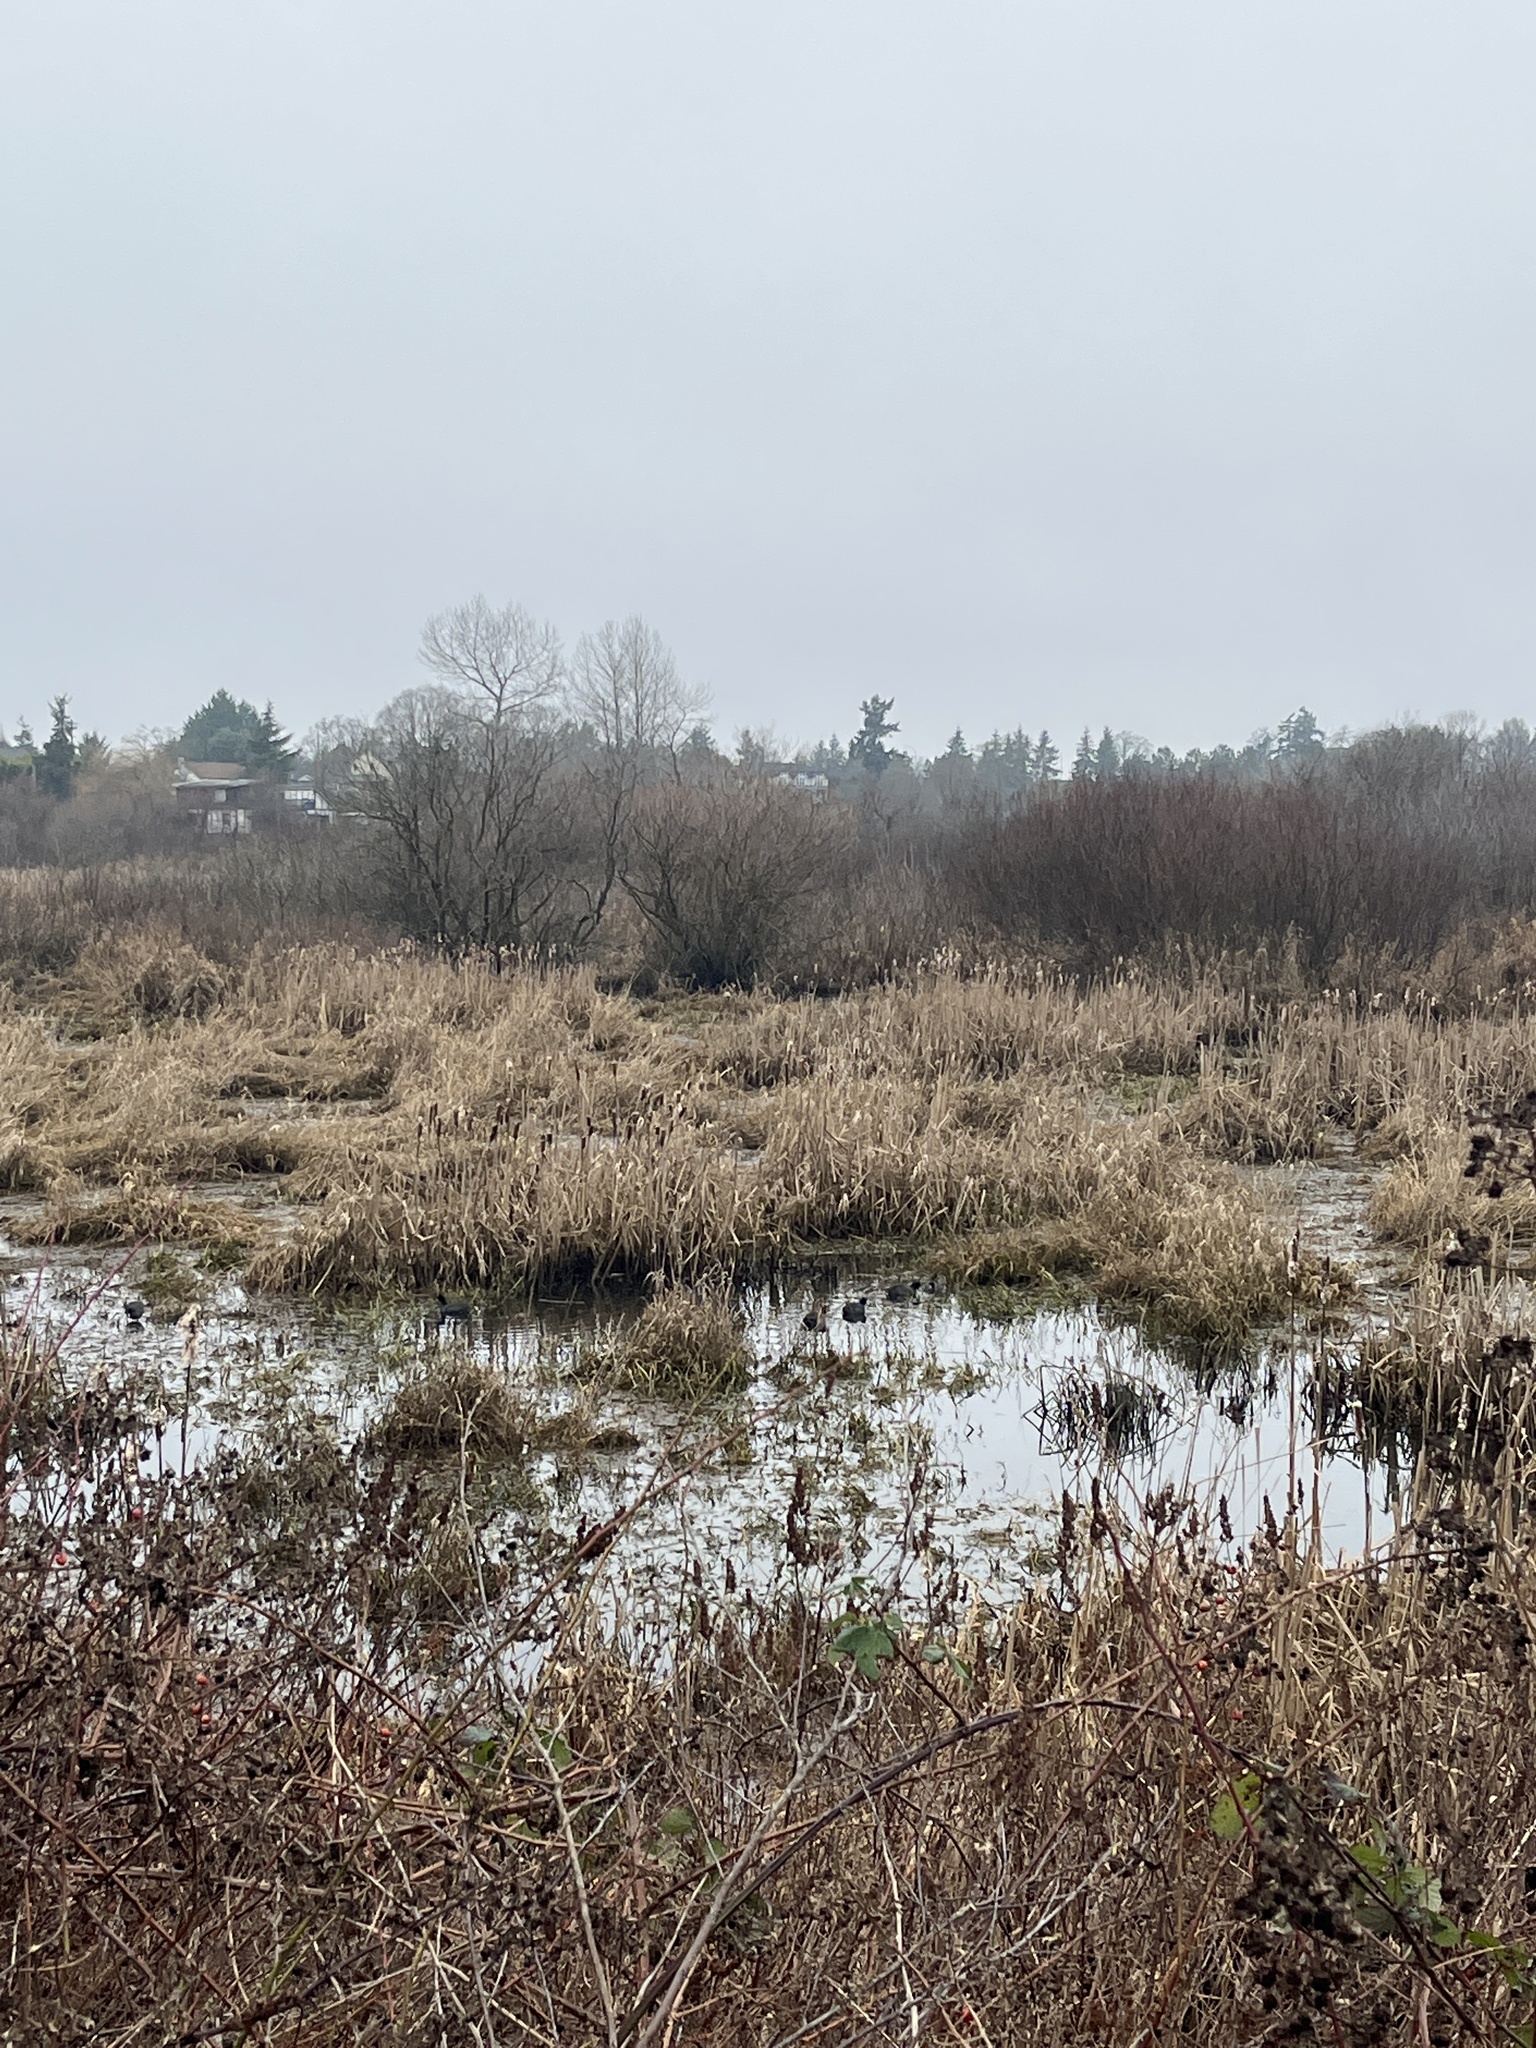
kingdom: Animalia
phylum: Chordata
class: Aves
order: Gruiformes
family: Rallidae
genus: Fulica
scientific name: Fulica americana
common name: American coot
